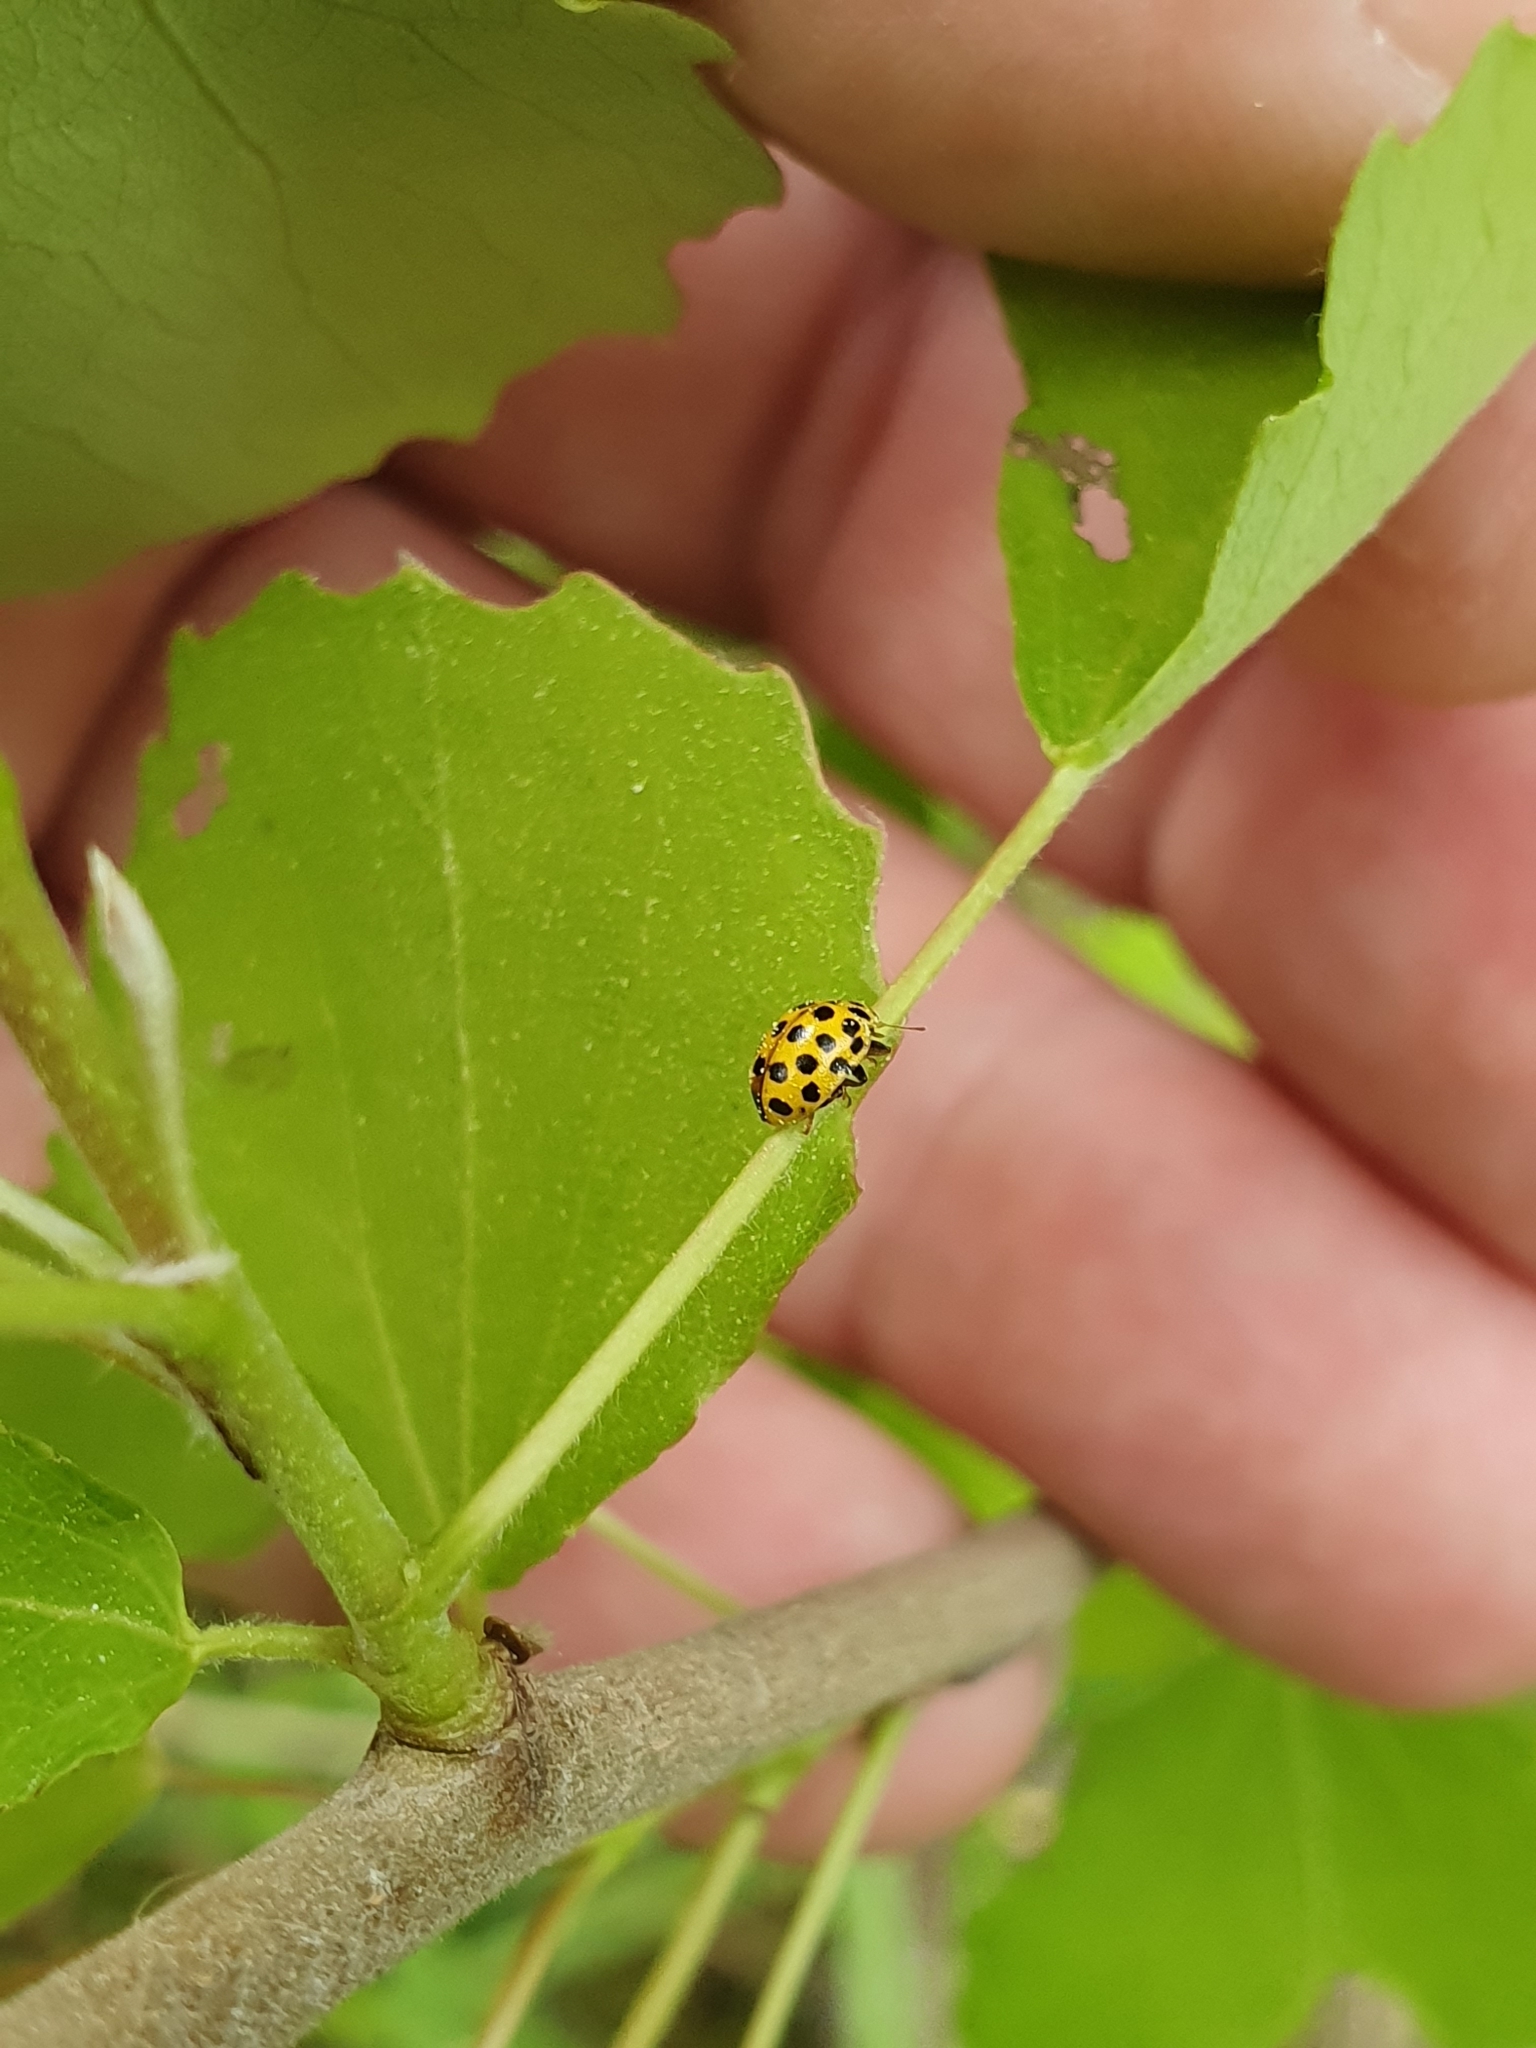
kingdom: Animalia
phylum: Arthropoda
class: Insecta
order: Coleoptera
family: Coccinellidae
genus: Psyllobora
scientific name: Psyllobora vigintiduopunctata
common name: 22-spot ladybird
